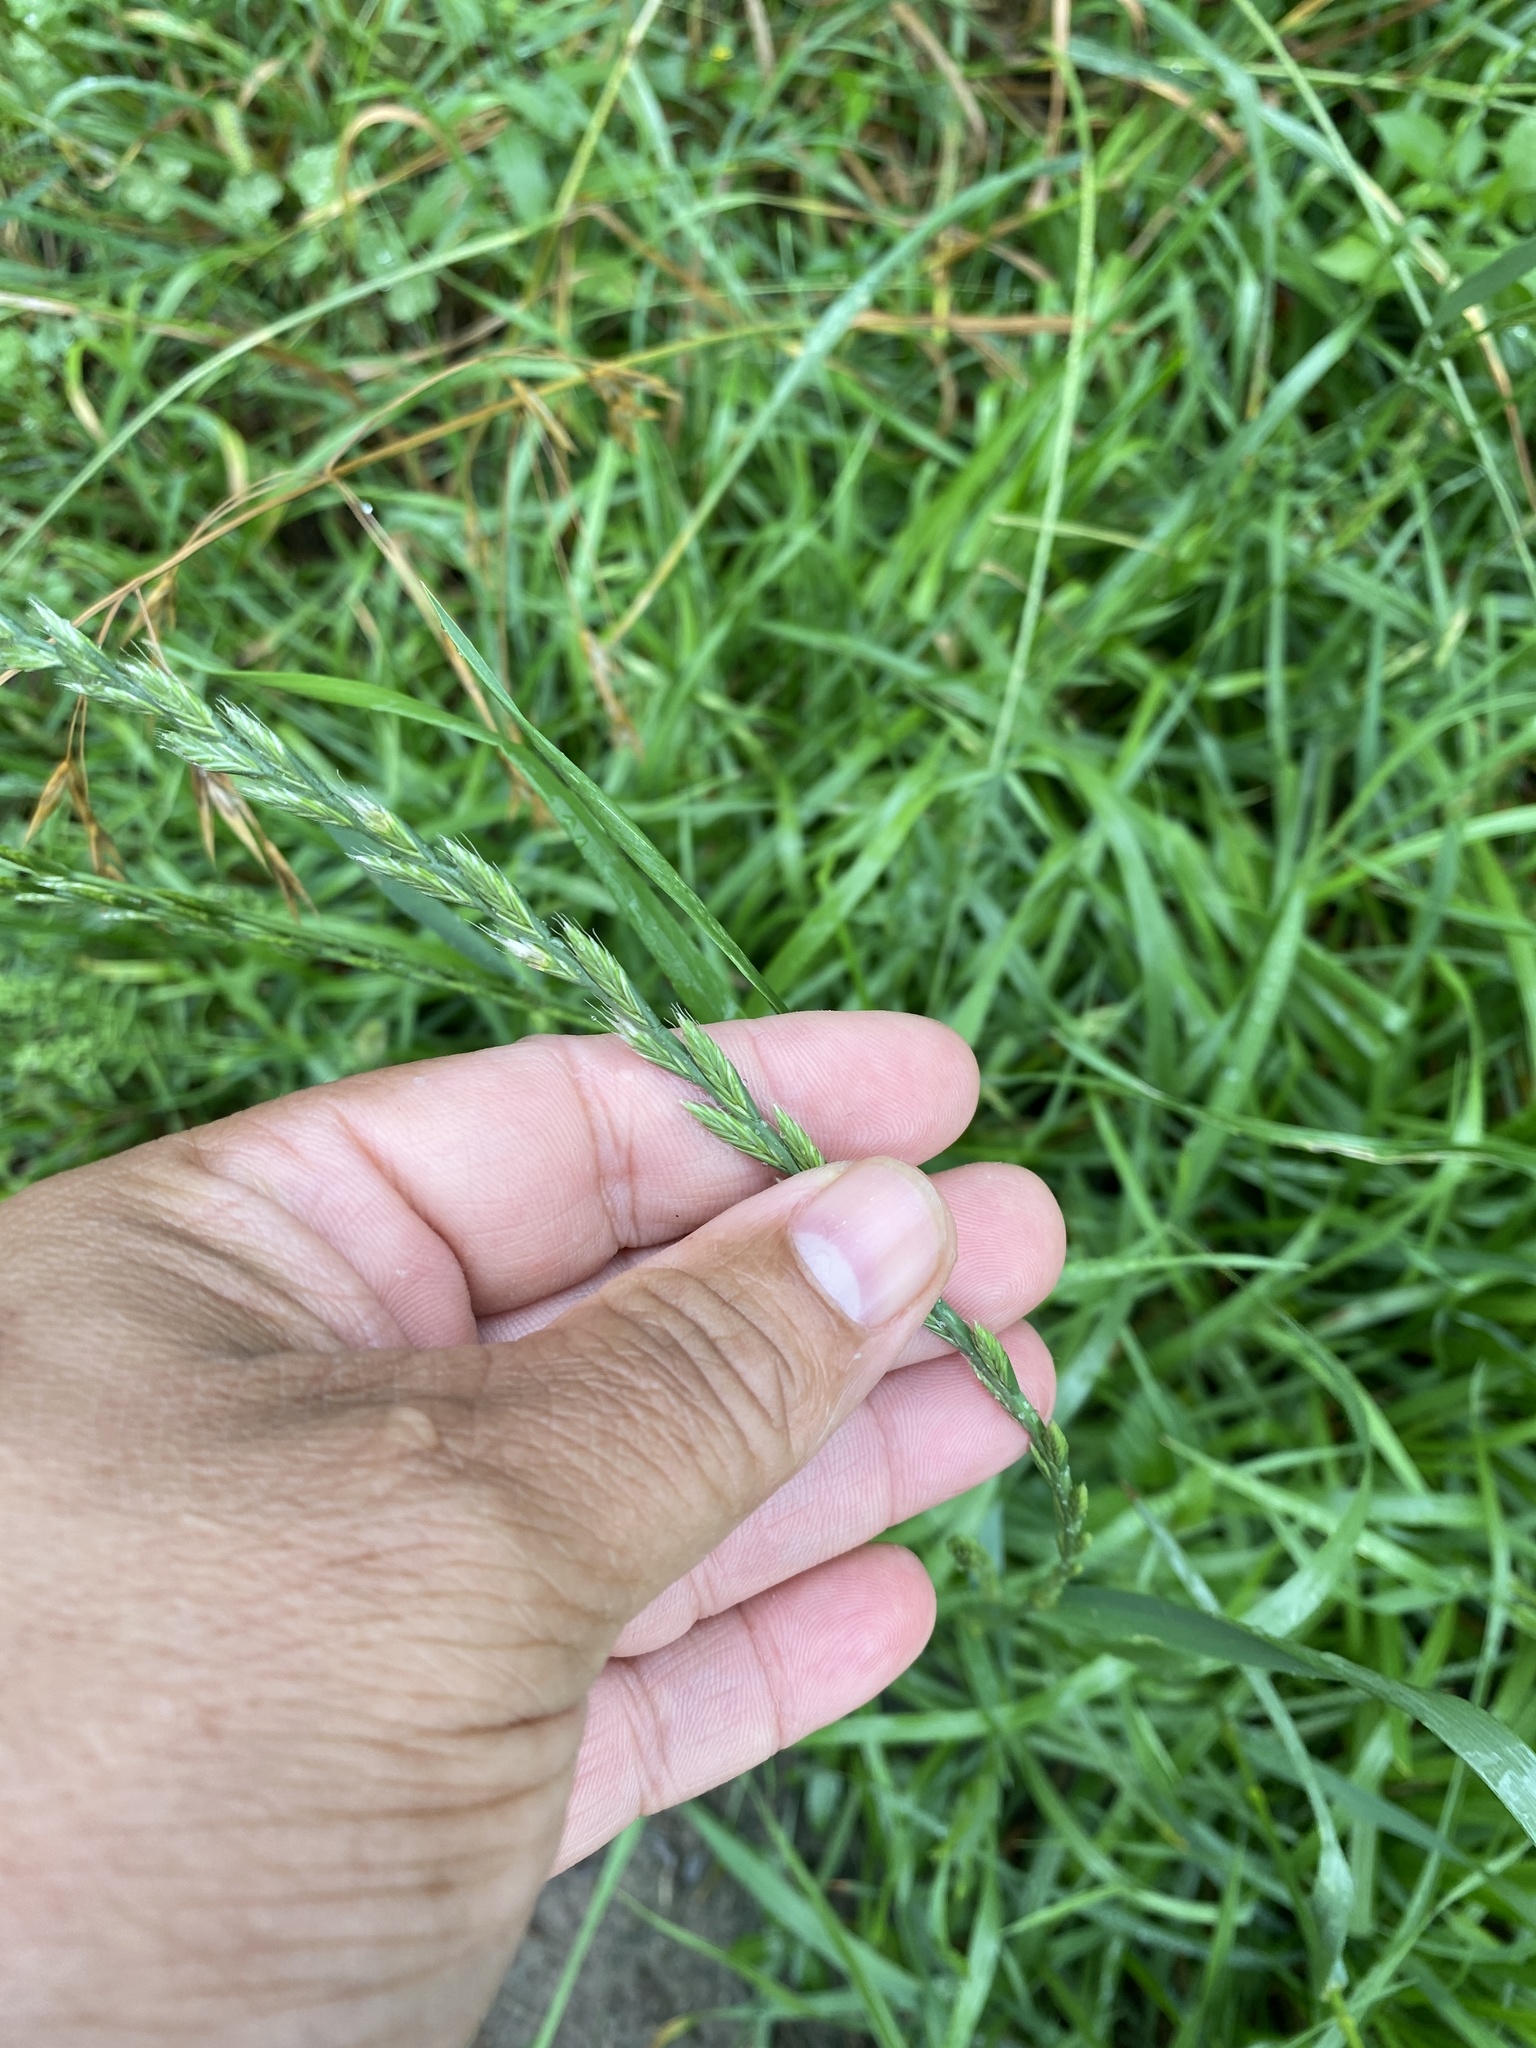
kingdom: Plantae
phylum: Tracheophyta
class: Liliopsida
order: Poales
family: Poaceae
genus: Lolium
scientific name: Lolium perenne
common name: Perennial ryegrass
